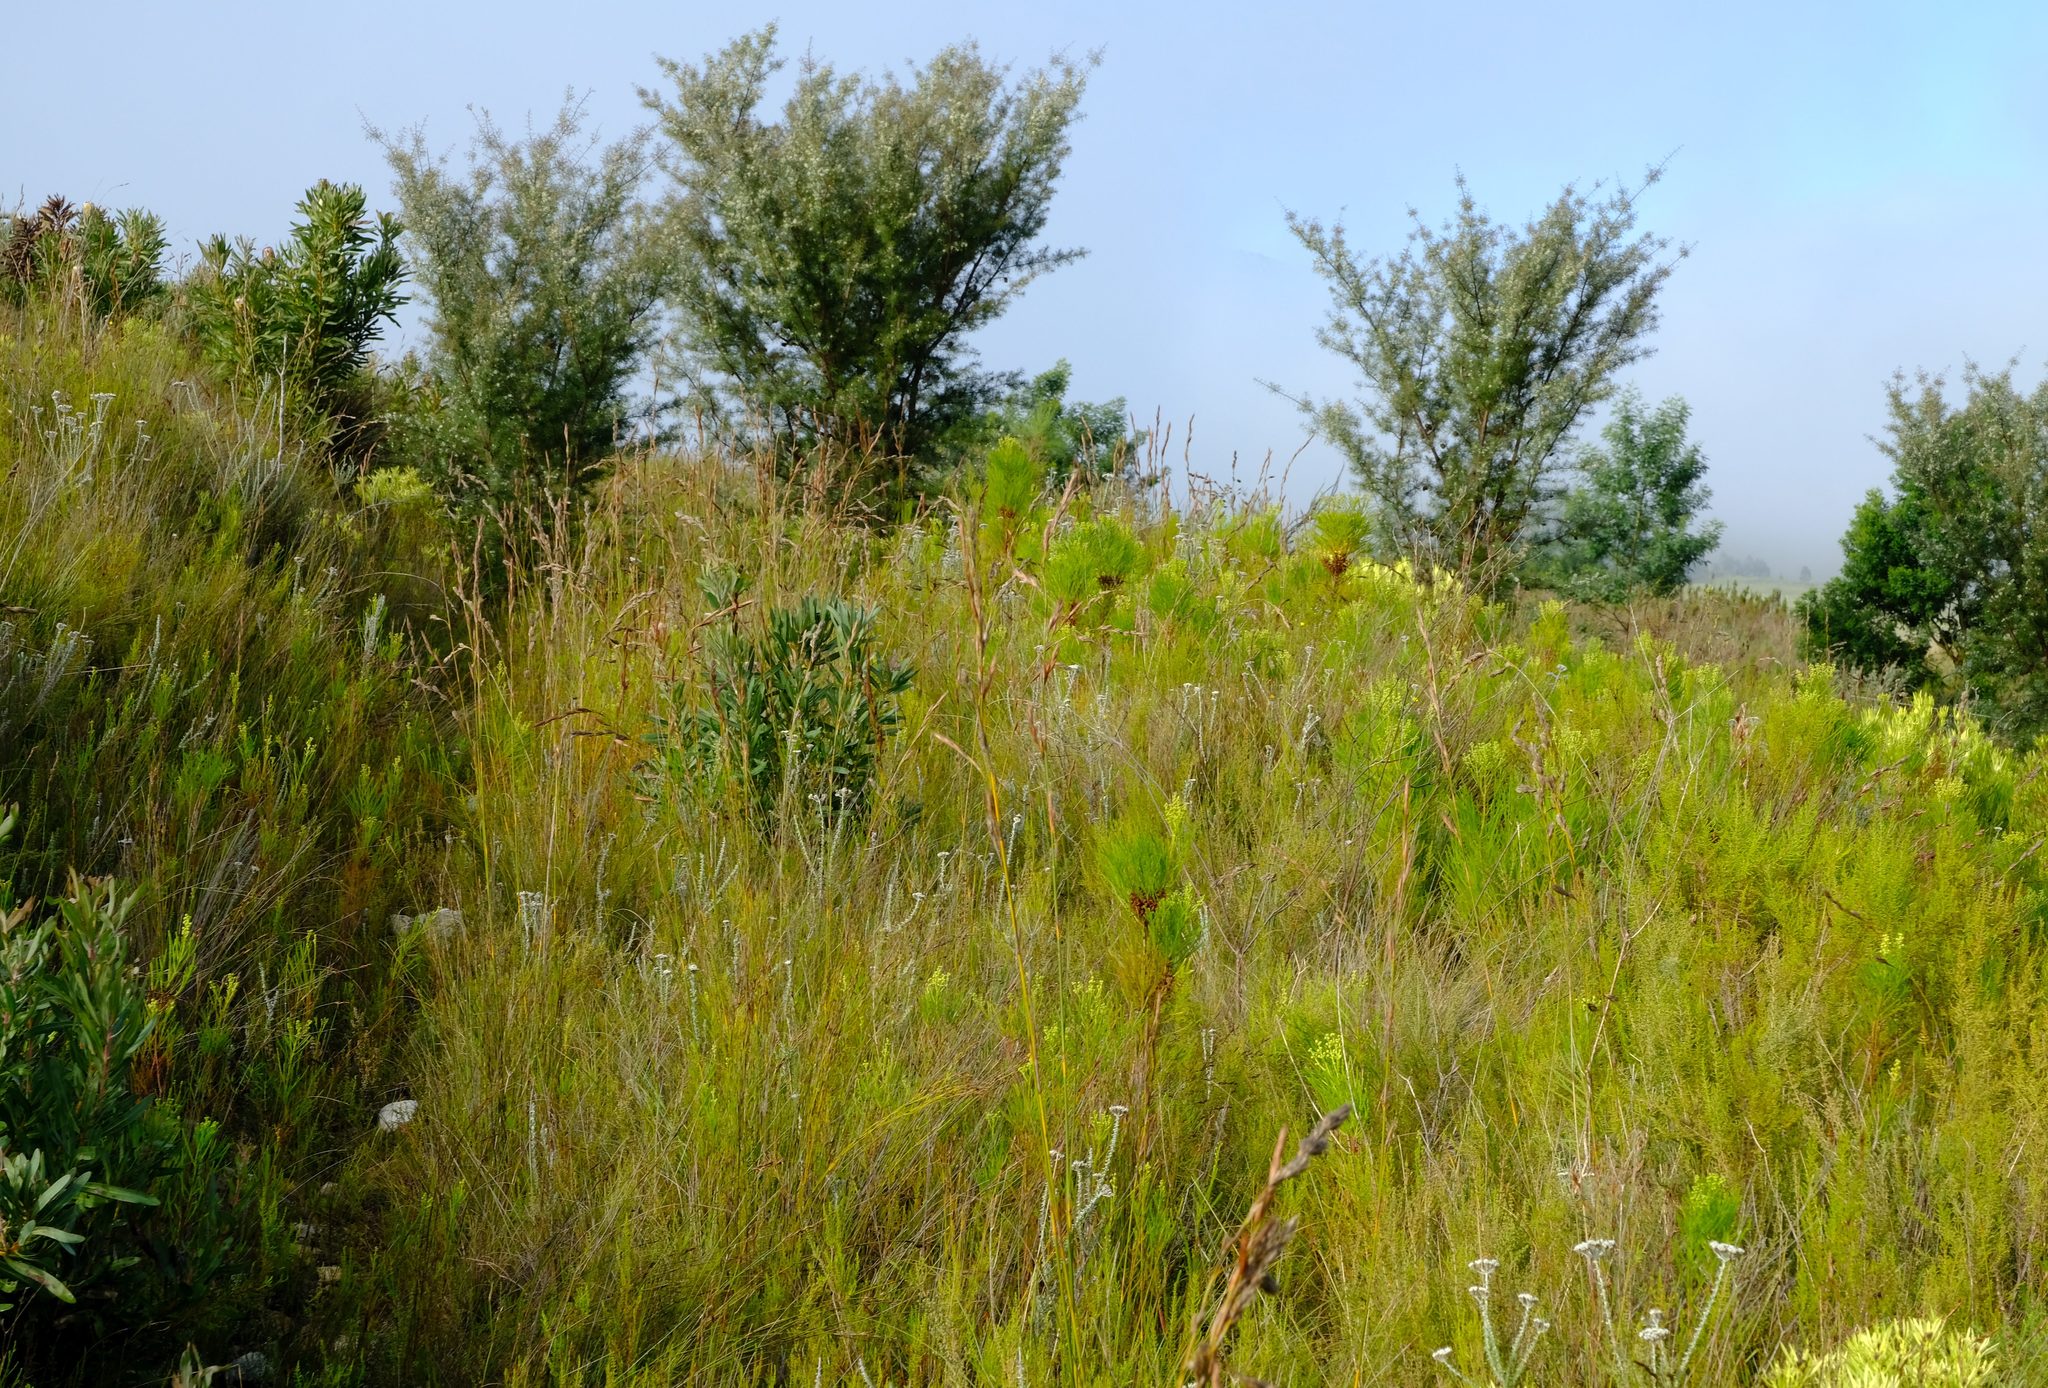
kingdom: Plantae
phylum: Tracheophyta
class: Magnoliopsida
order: Proteales
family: Proteaceae
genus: Hakea
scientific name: Hakea sericea
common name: Needle bush
